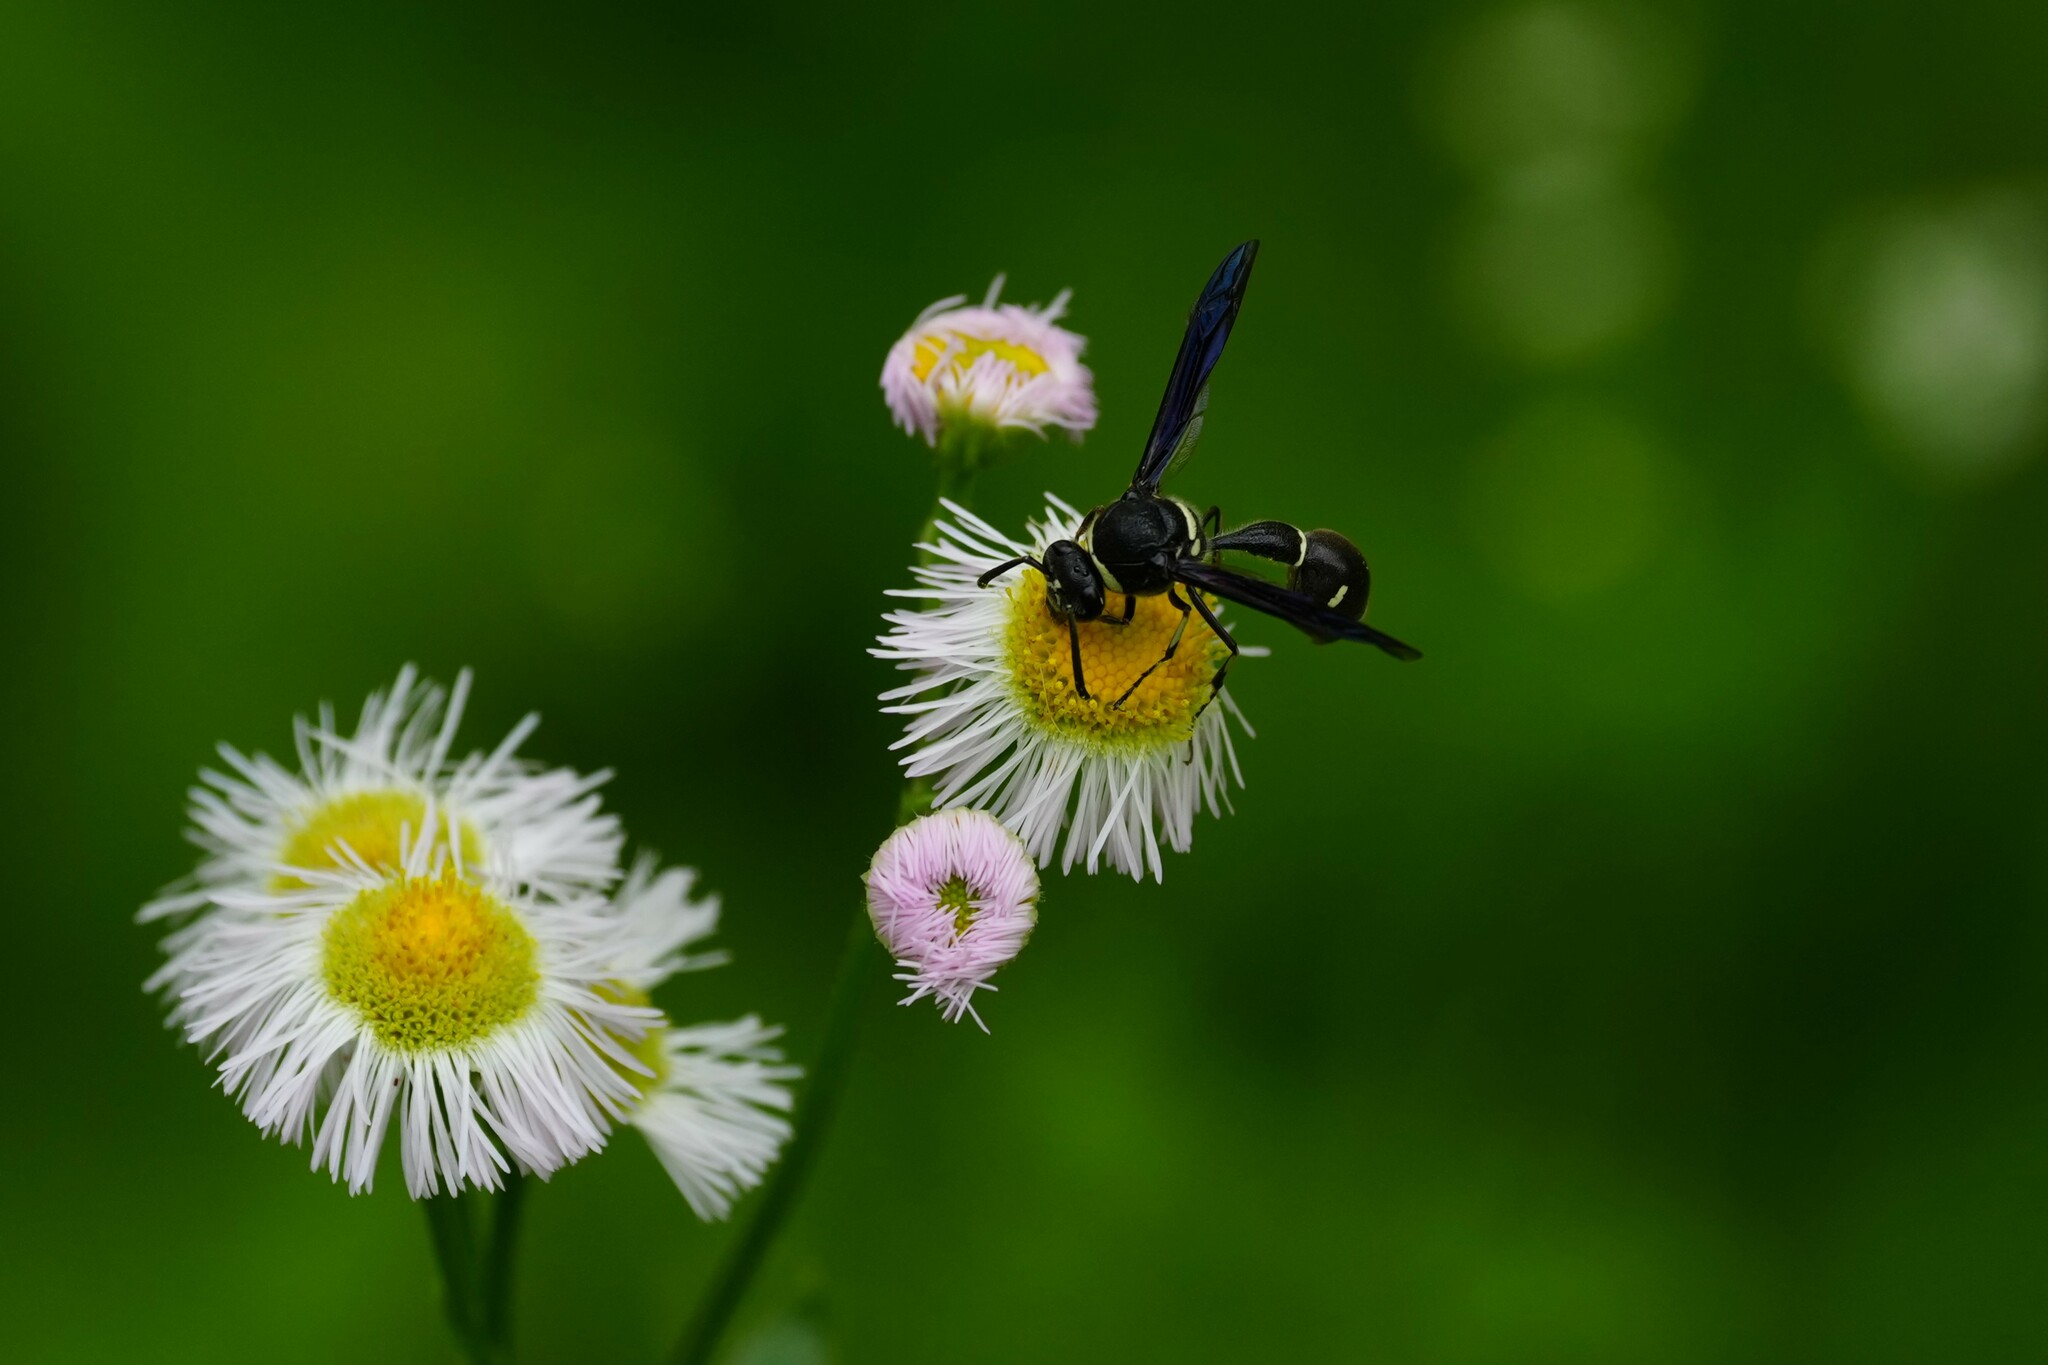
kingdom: Animalia
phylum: Arthropoda
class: Insecta
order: Hymenoptera
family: Vespidae
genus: Eumenes
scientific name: Eumenes fraternus
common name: Fraternal potter wasp
